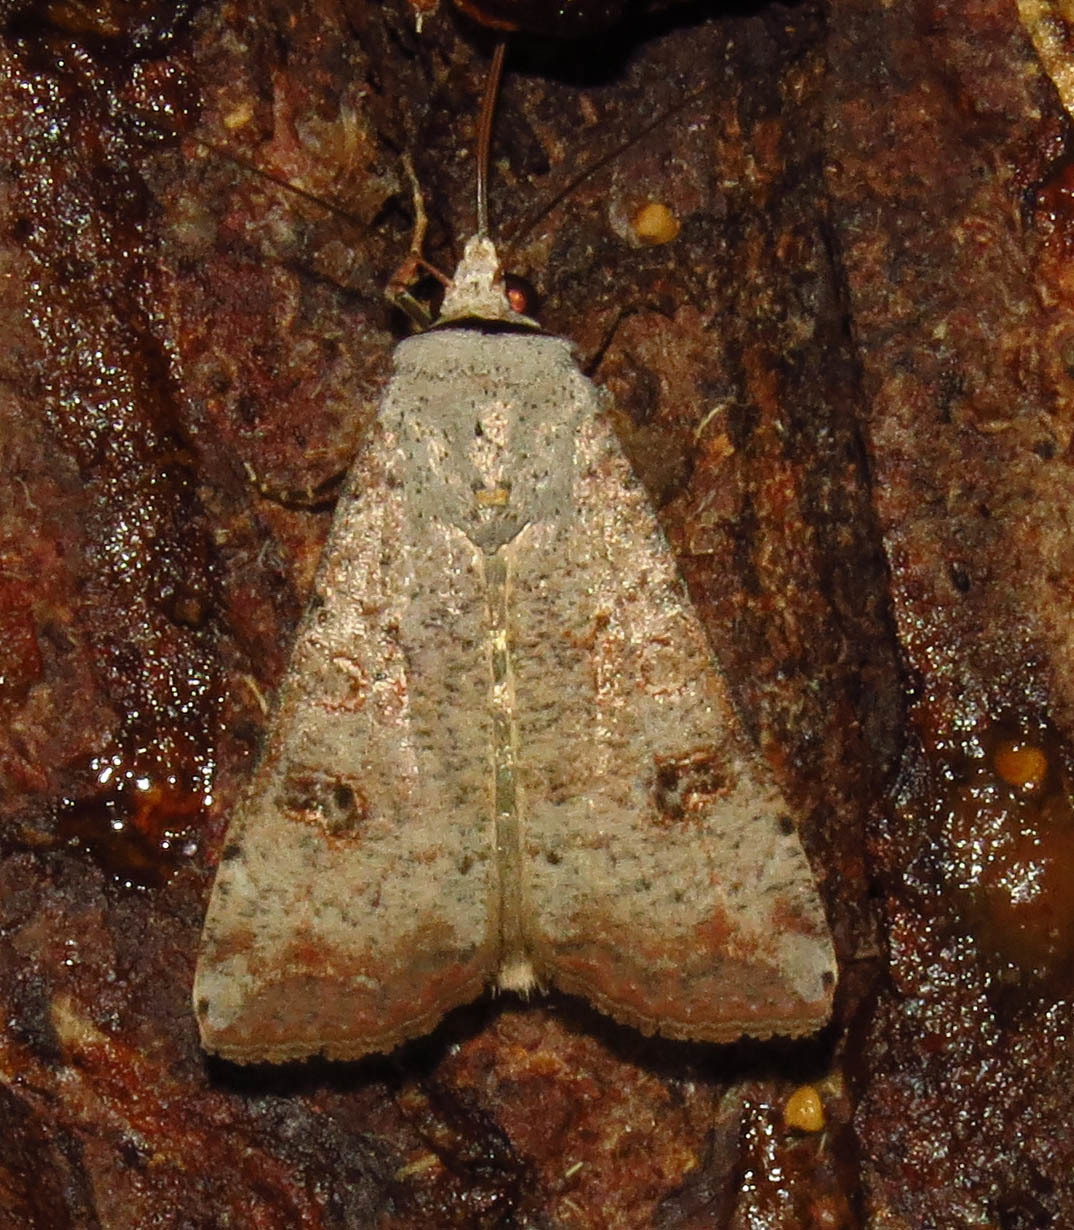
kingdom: Animalia
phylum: Arthropoda
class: Insecta
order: Lepidoptera
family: Noctuidae
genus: Anicla
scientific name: Anicla infecta
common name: Green cutworm
